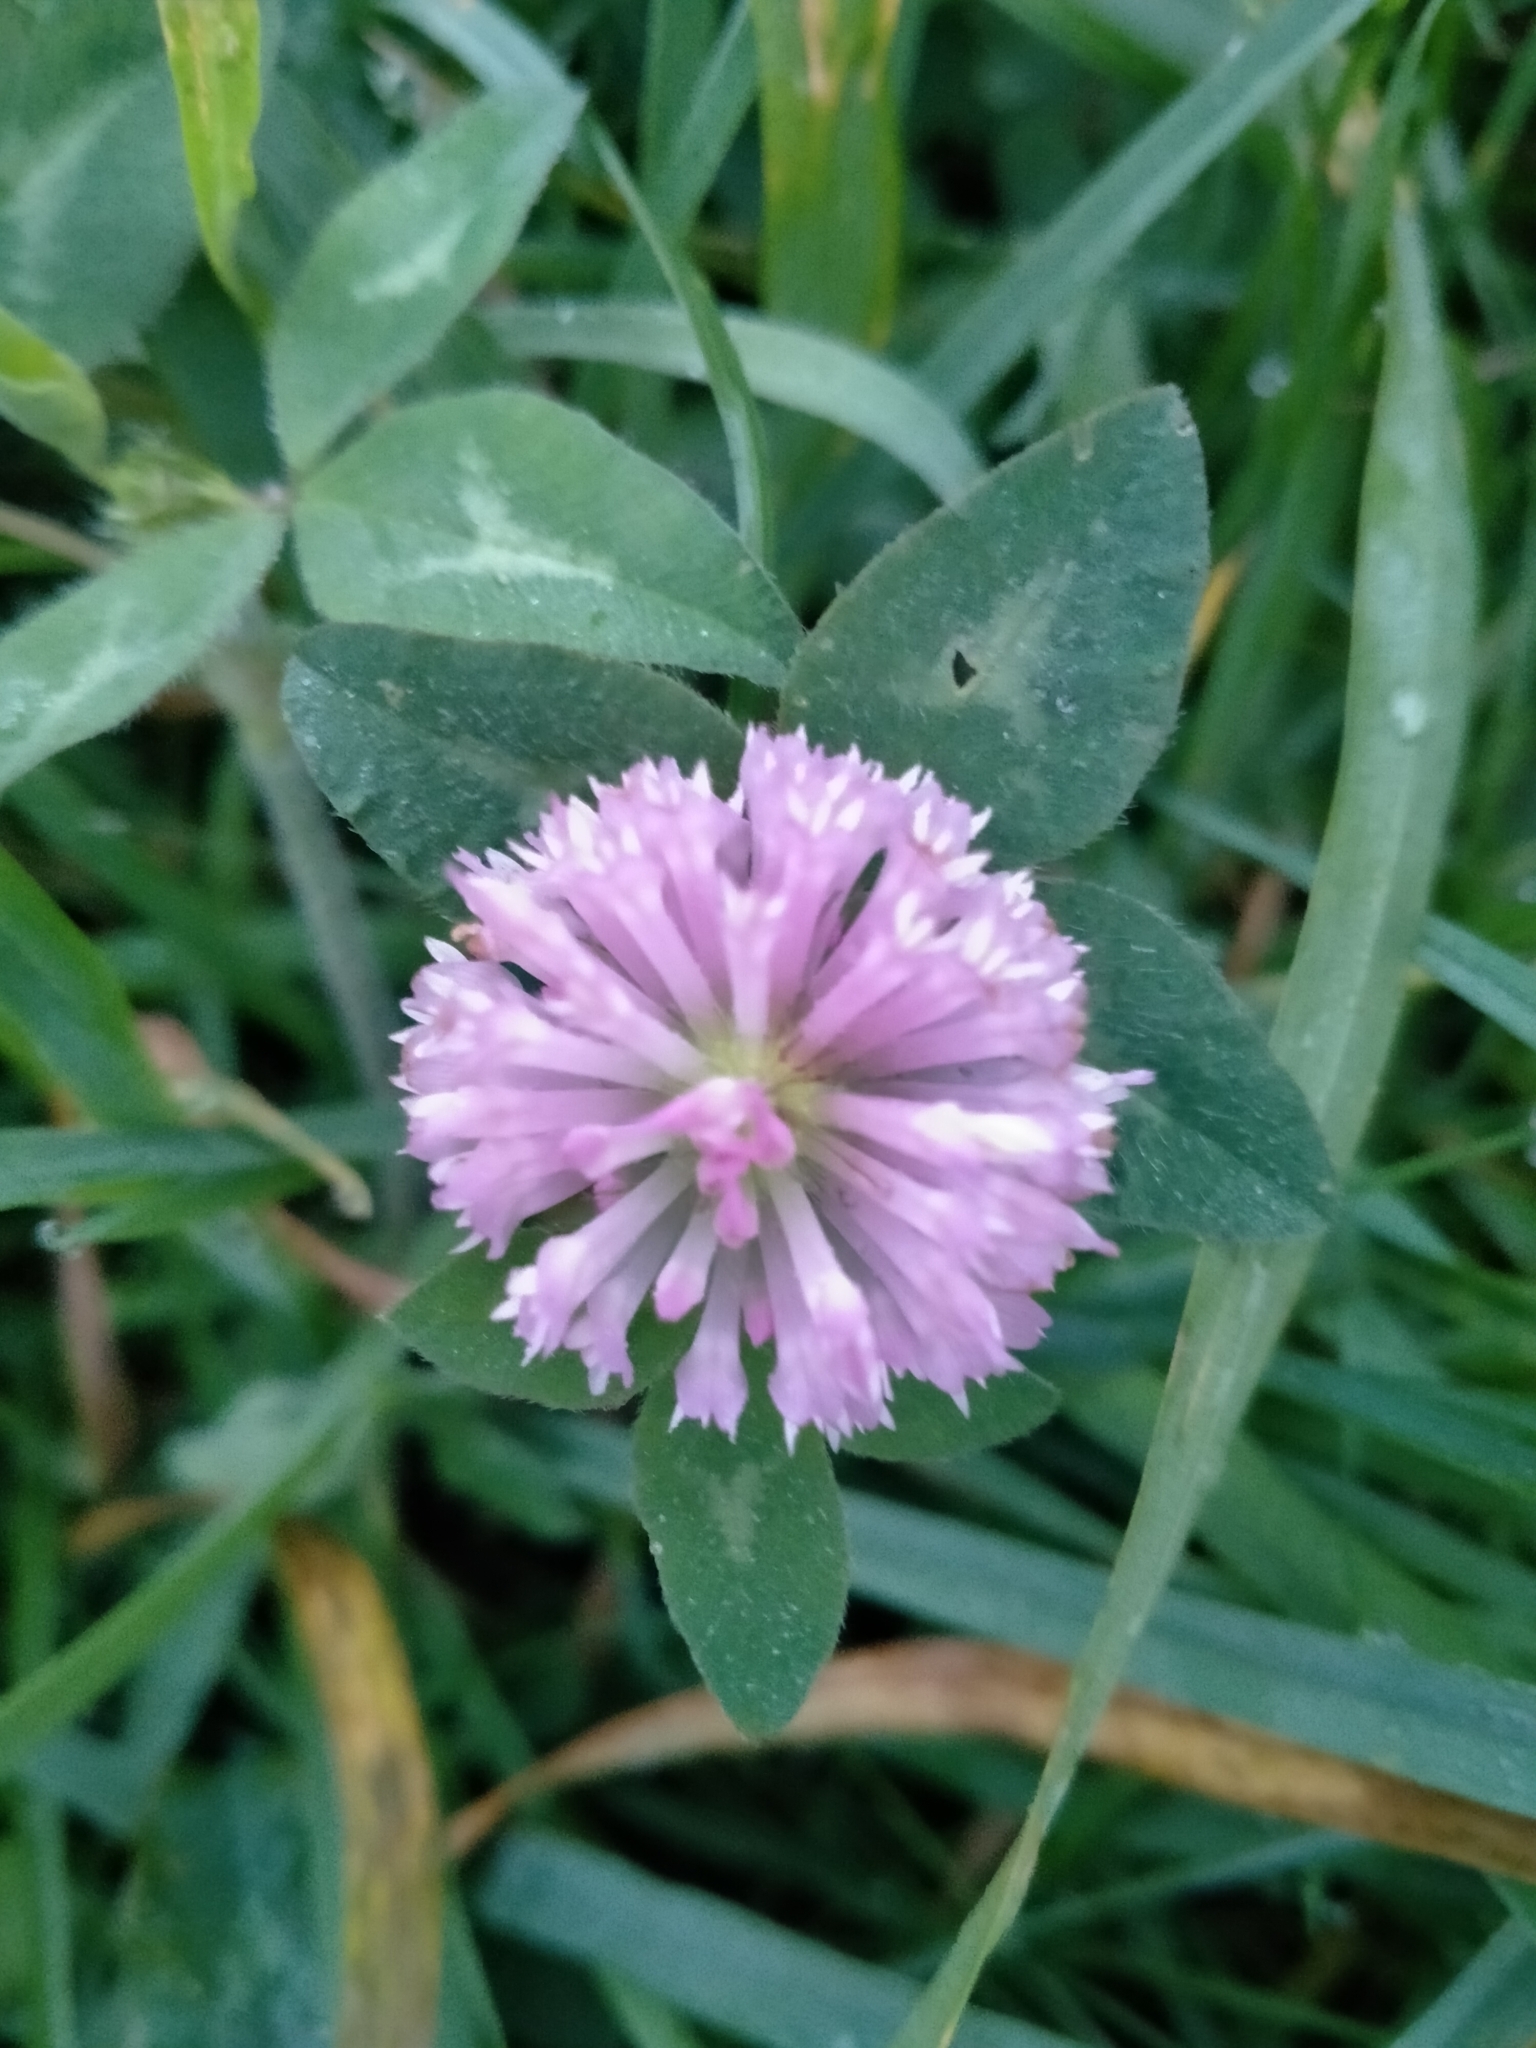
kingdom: Plantae
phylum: Tracheophyta
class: Magnoliopsida
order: Fabales
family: Fabaceae
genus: Trifolium
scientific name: Trifolium pratense
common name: Red clover
